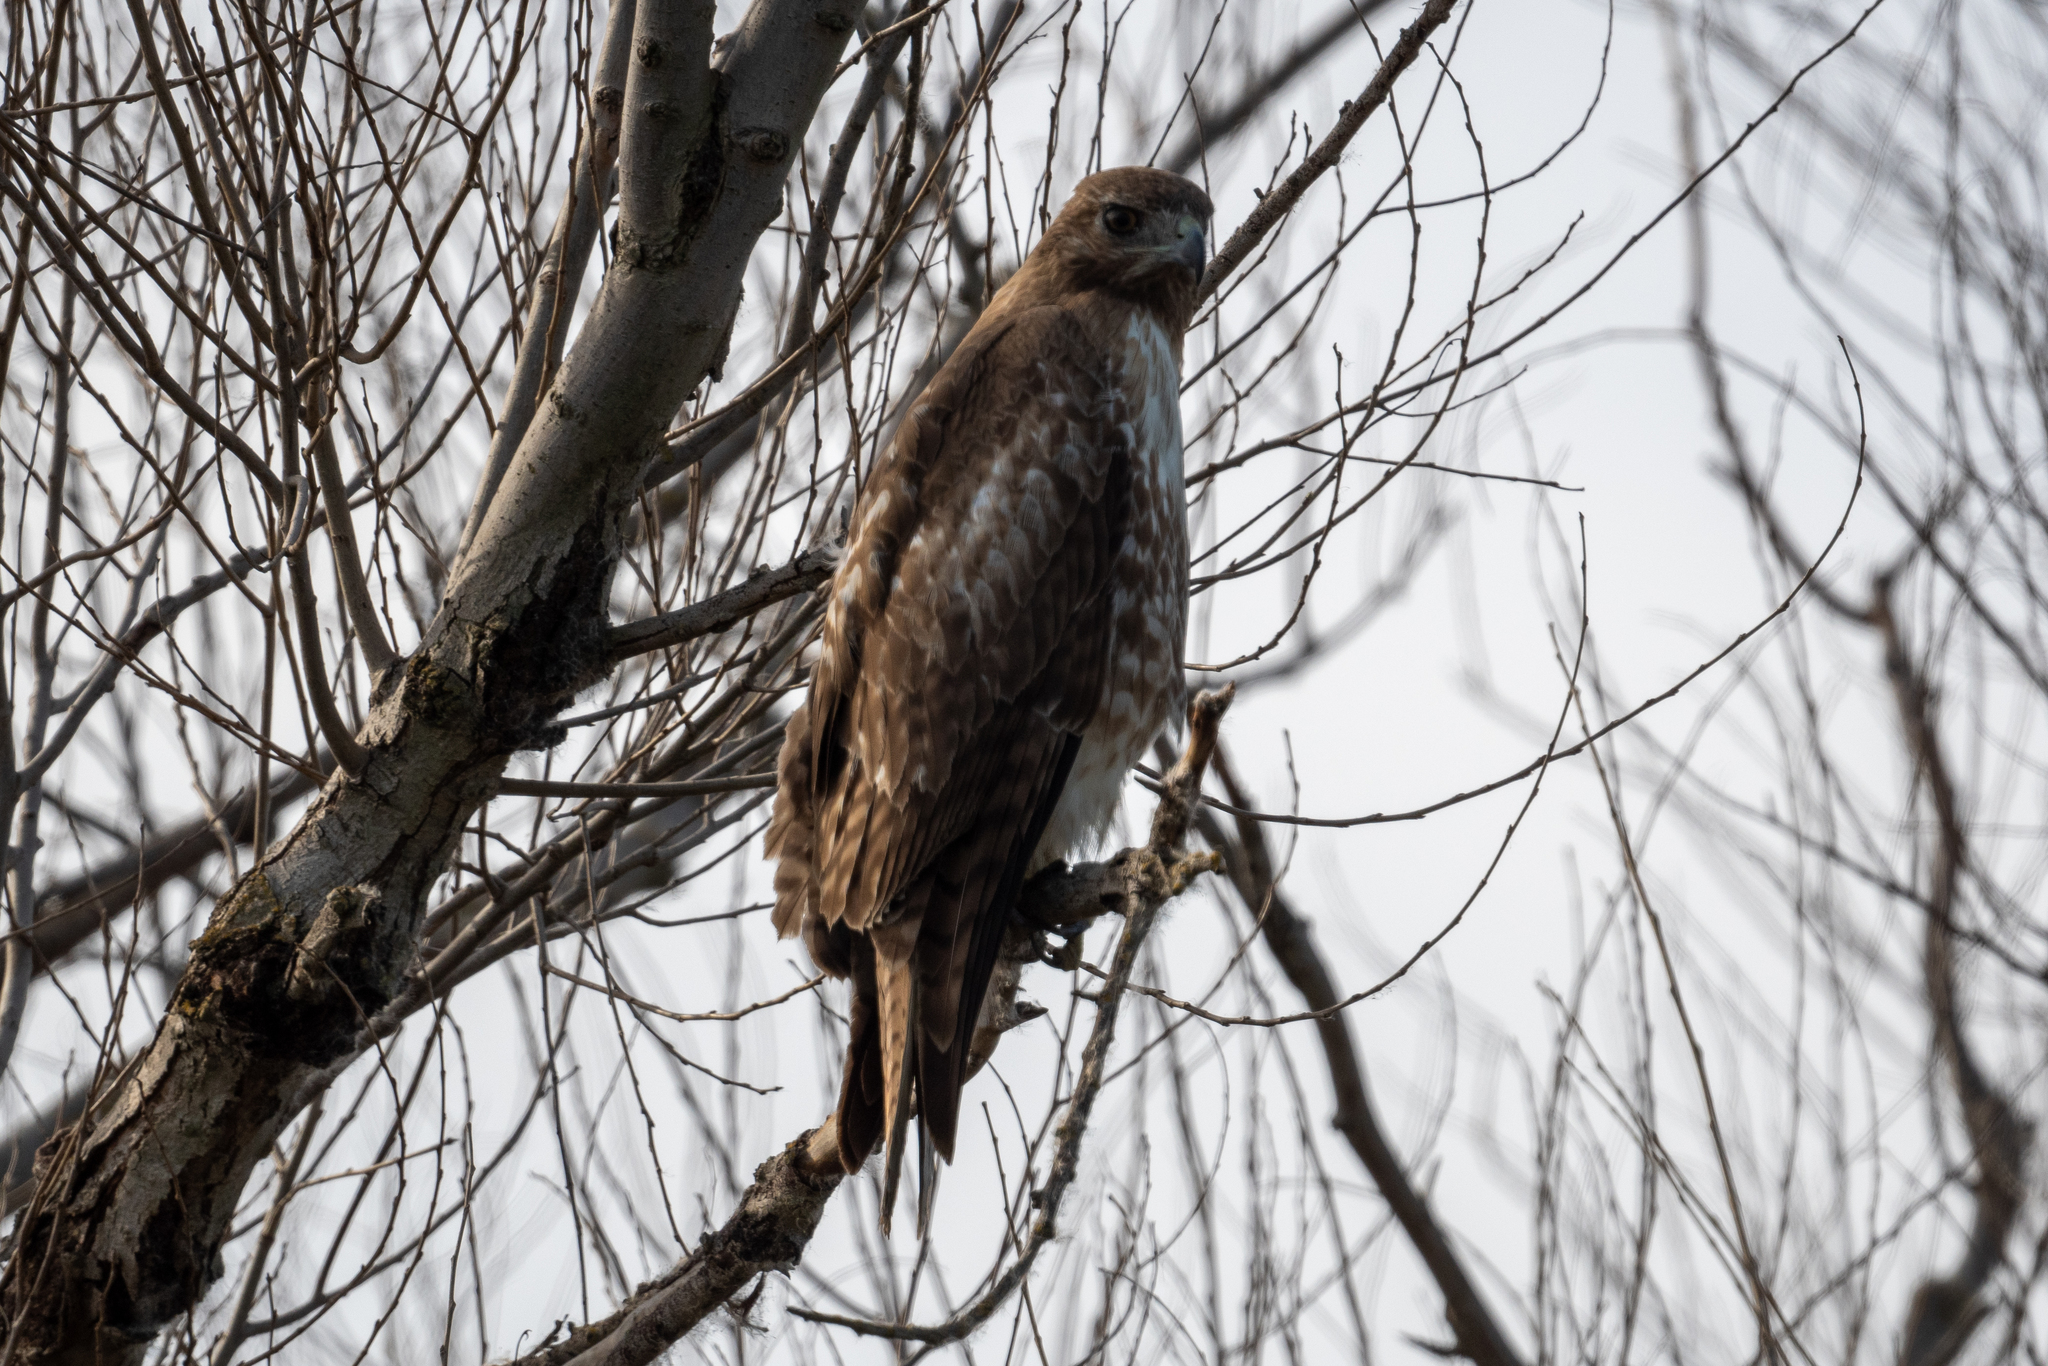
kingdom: Animalia
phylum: Chordata
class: Aves
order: Accipitriformes
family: Accipitridae
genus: Buteo
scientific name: Buteo jamaicensis
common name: Red-tailed hawk
